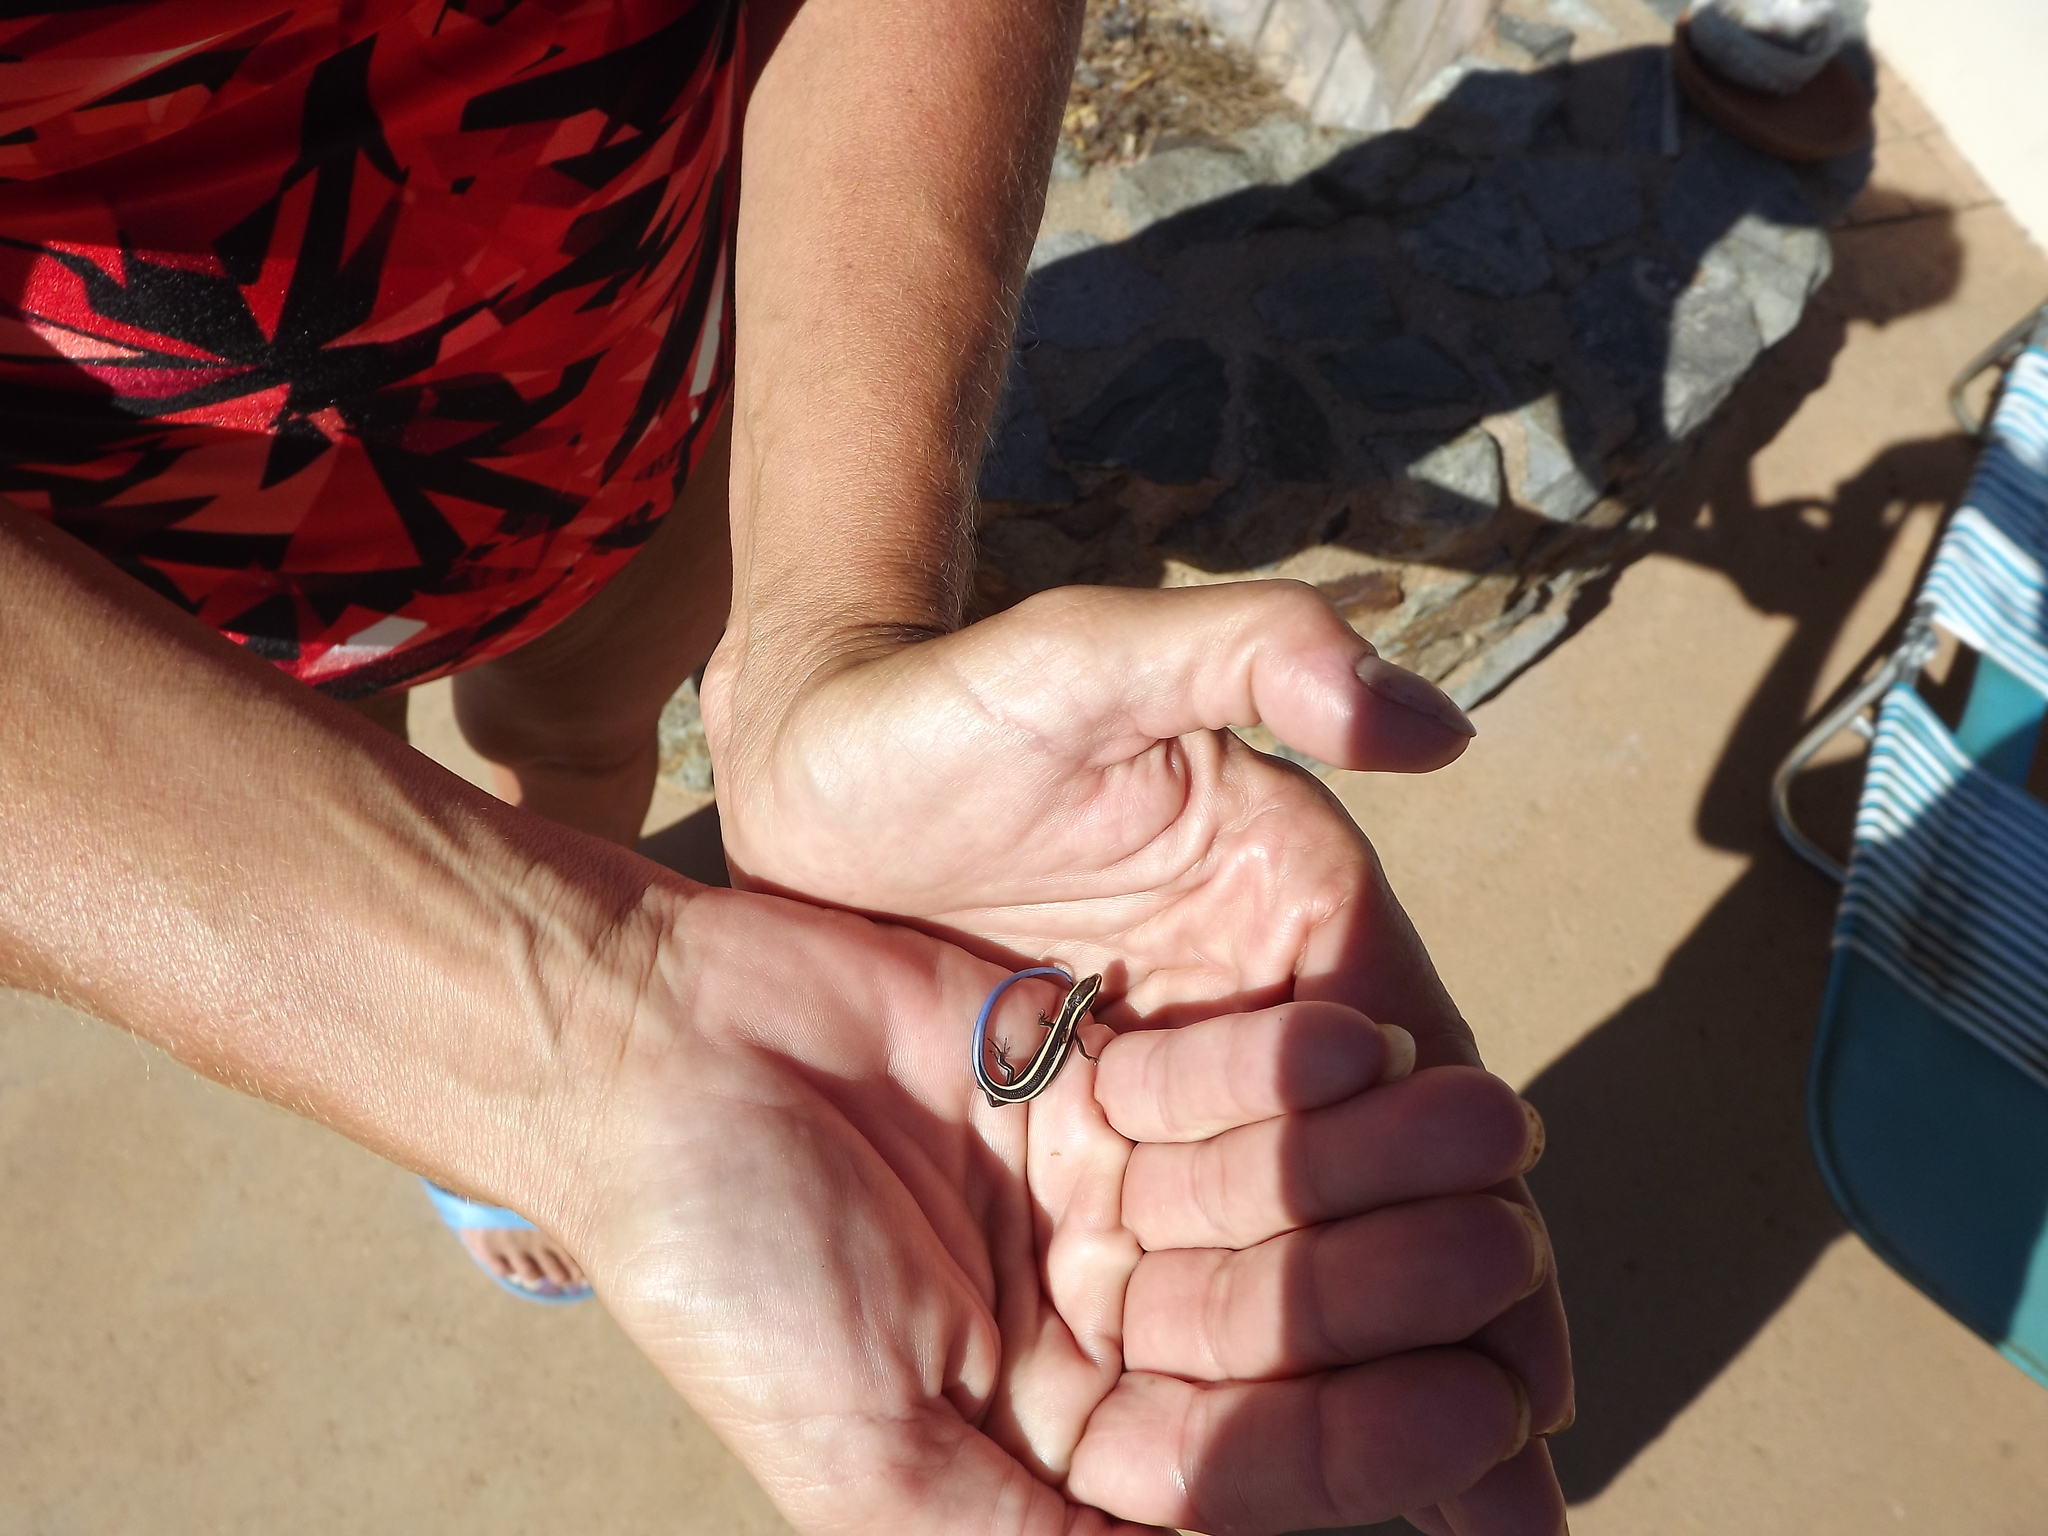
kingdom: Animalia
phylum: Chordata
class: Squamata
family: Scincidae
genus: Plestiodon
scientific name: Plestiodon skiltonianus
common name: Coronado island skink [interparietalis]
